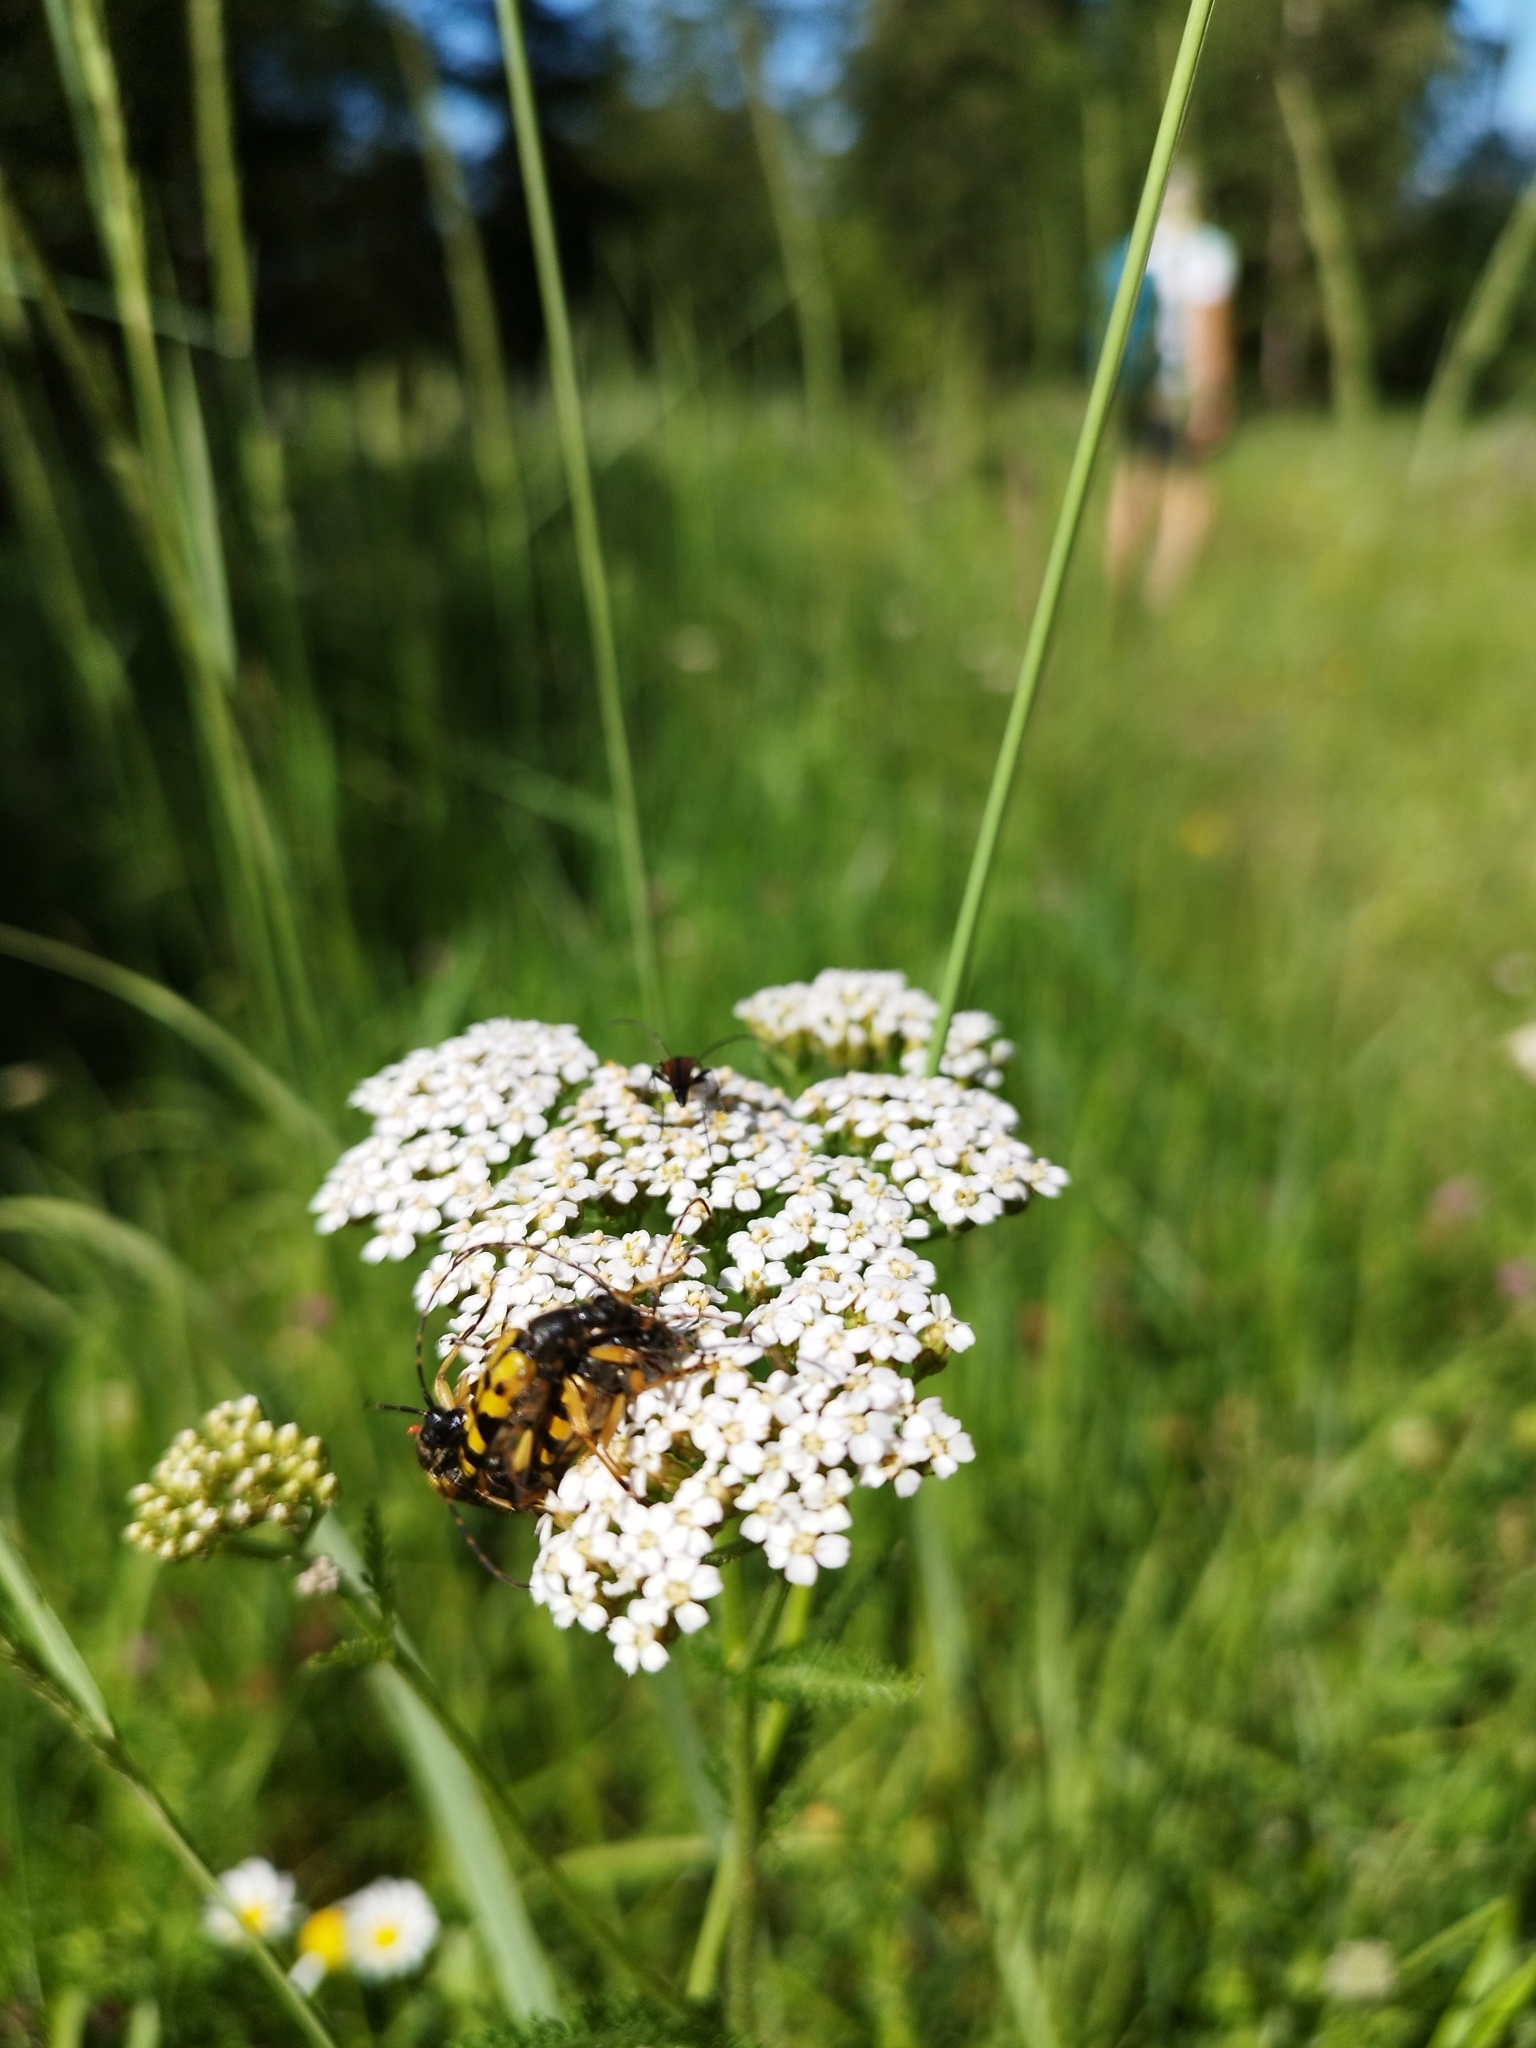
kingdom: Animalia
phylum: Arthropoda
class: Insecta
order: Coleoptera
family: Cerambycidae
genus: Rutpela
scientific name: Rutpela maculata
